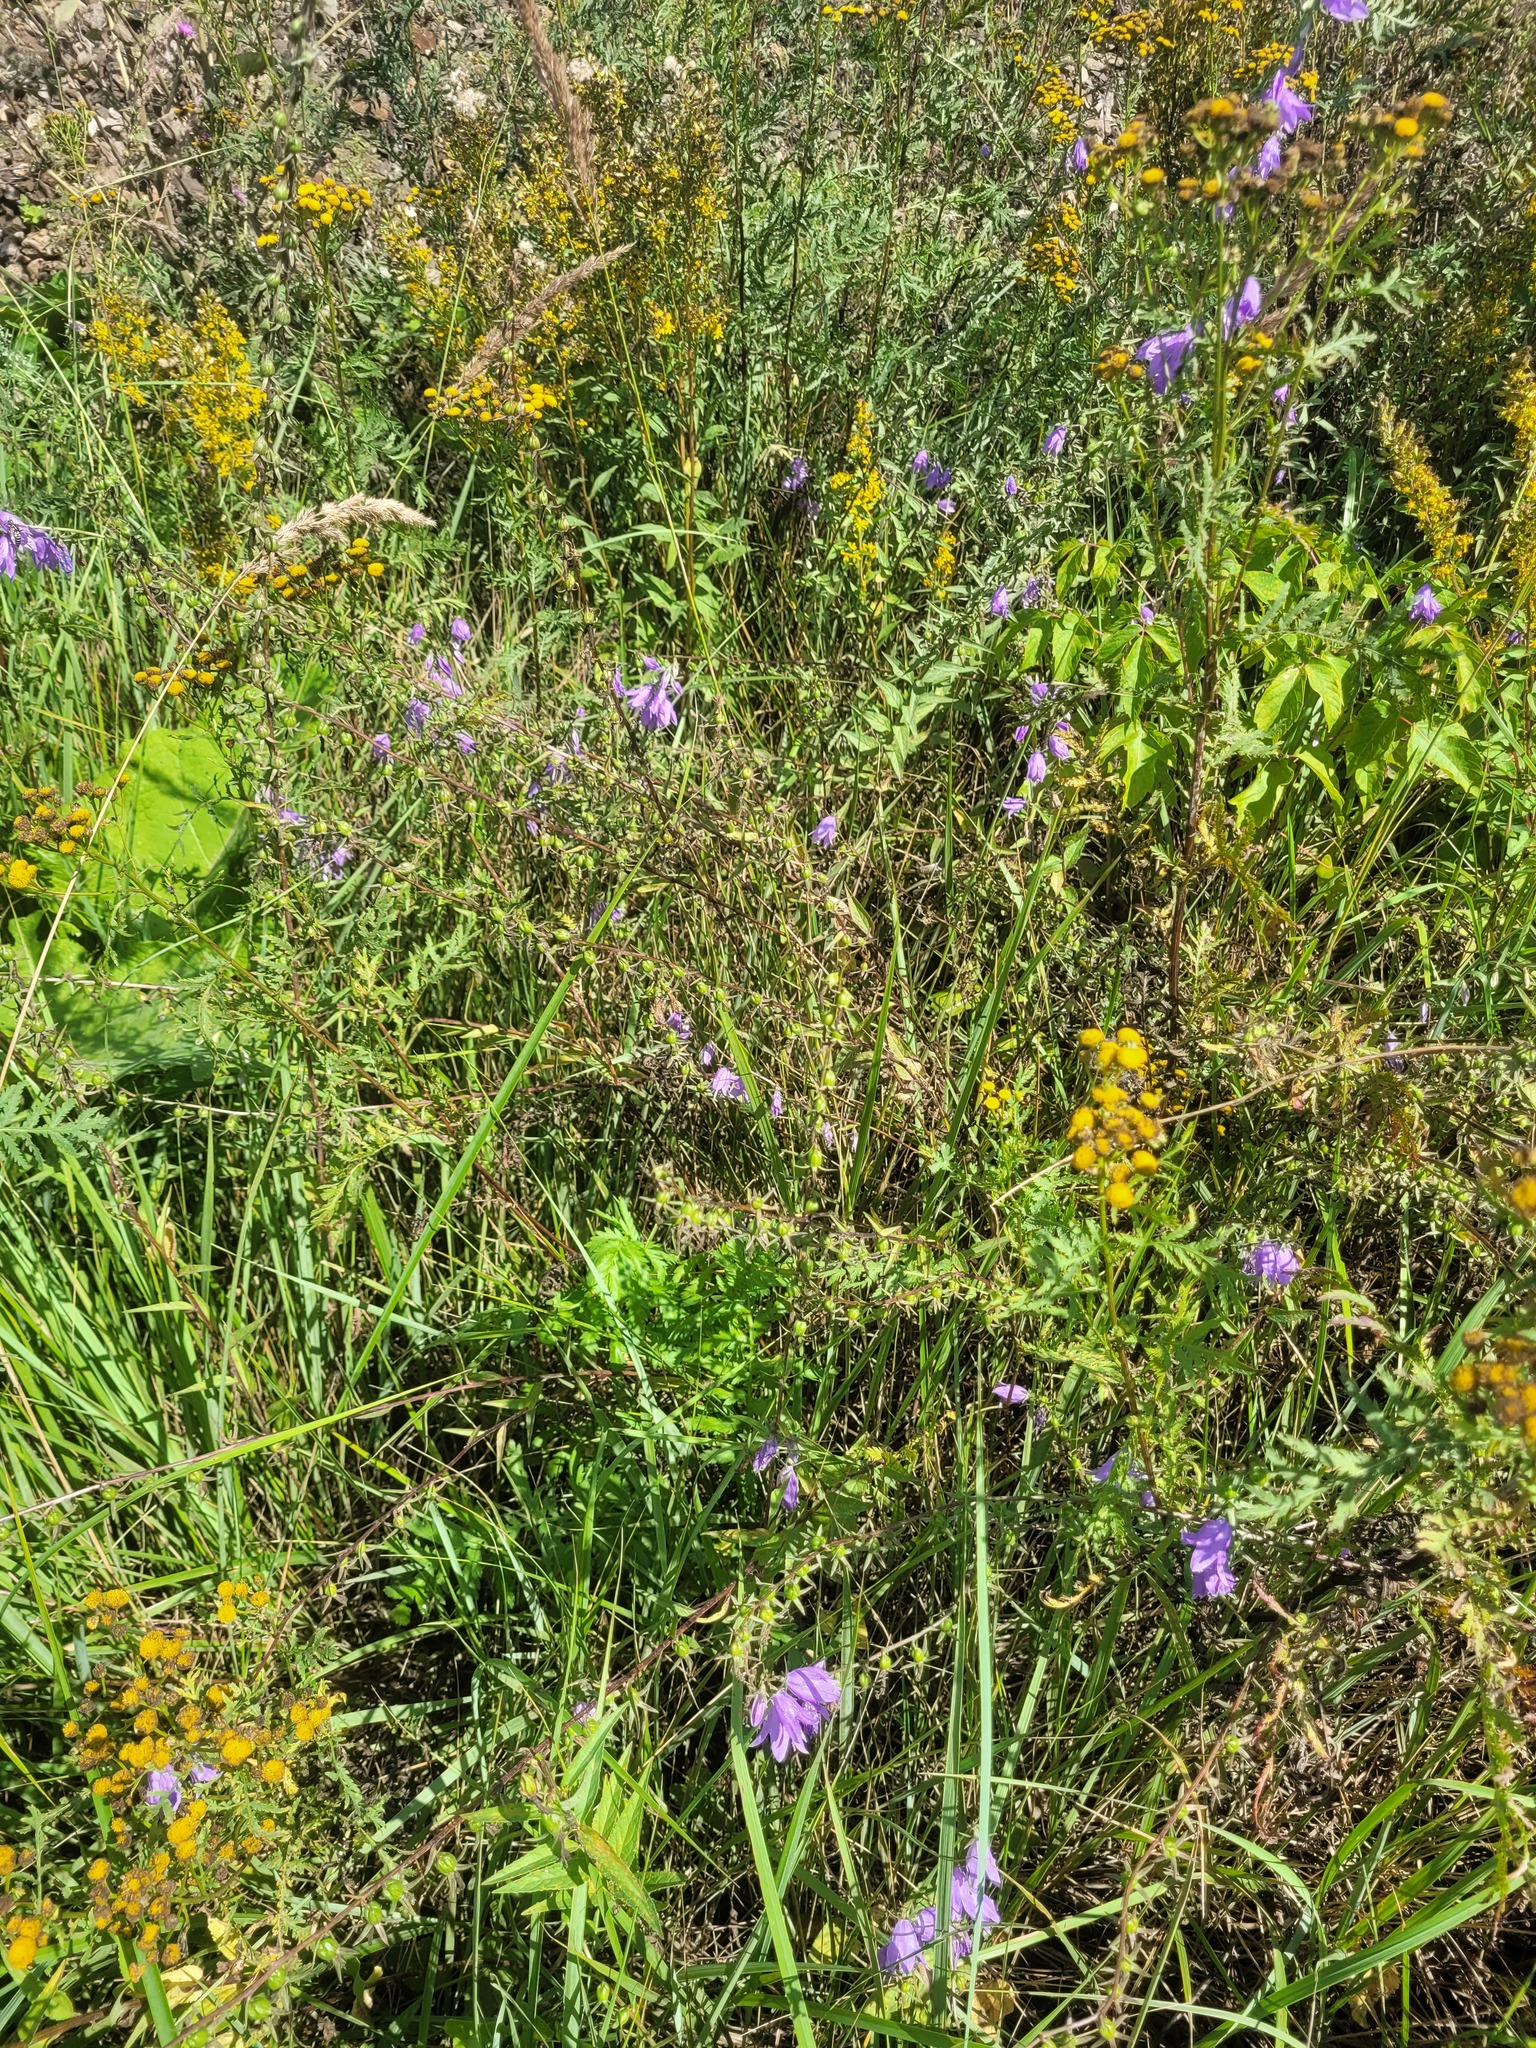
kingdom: Plantae
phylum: Tracheophyta
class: Magnoliopsida
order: Asterales
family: Campanulaceae
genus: Campanula
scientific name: Campanula rapunculoides
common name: Creeping bellflower
